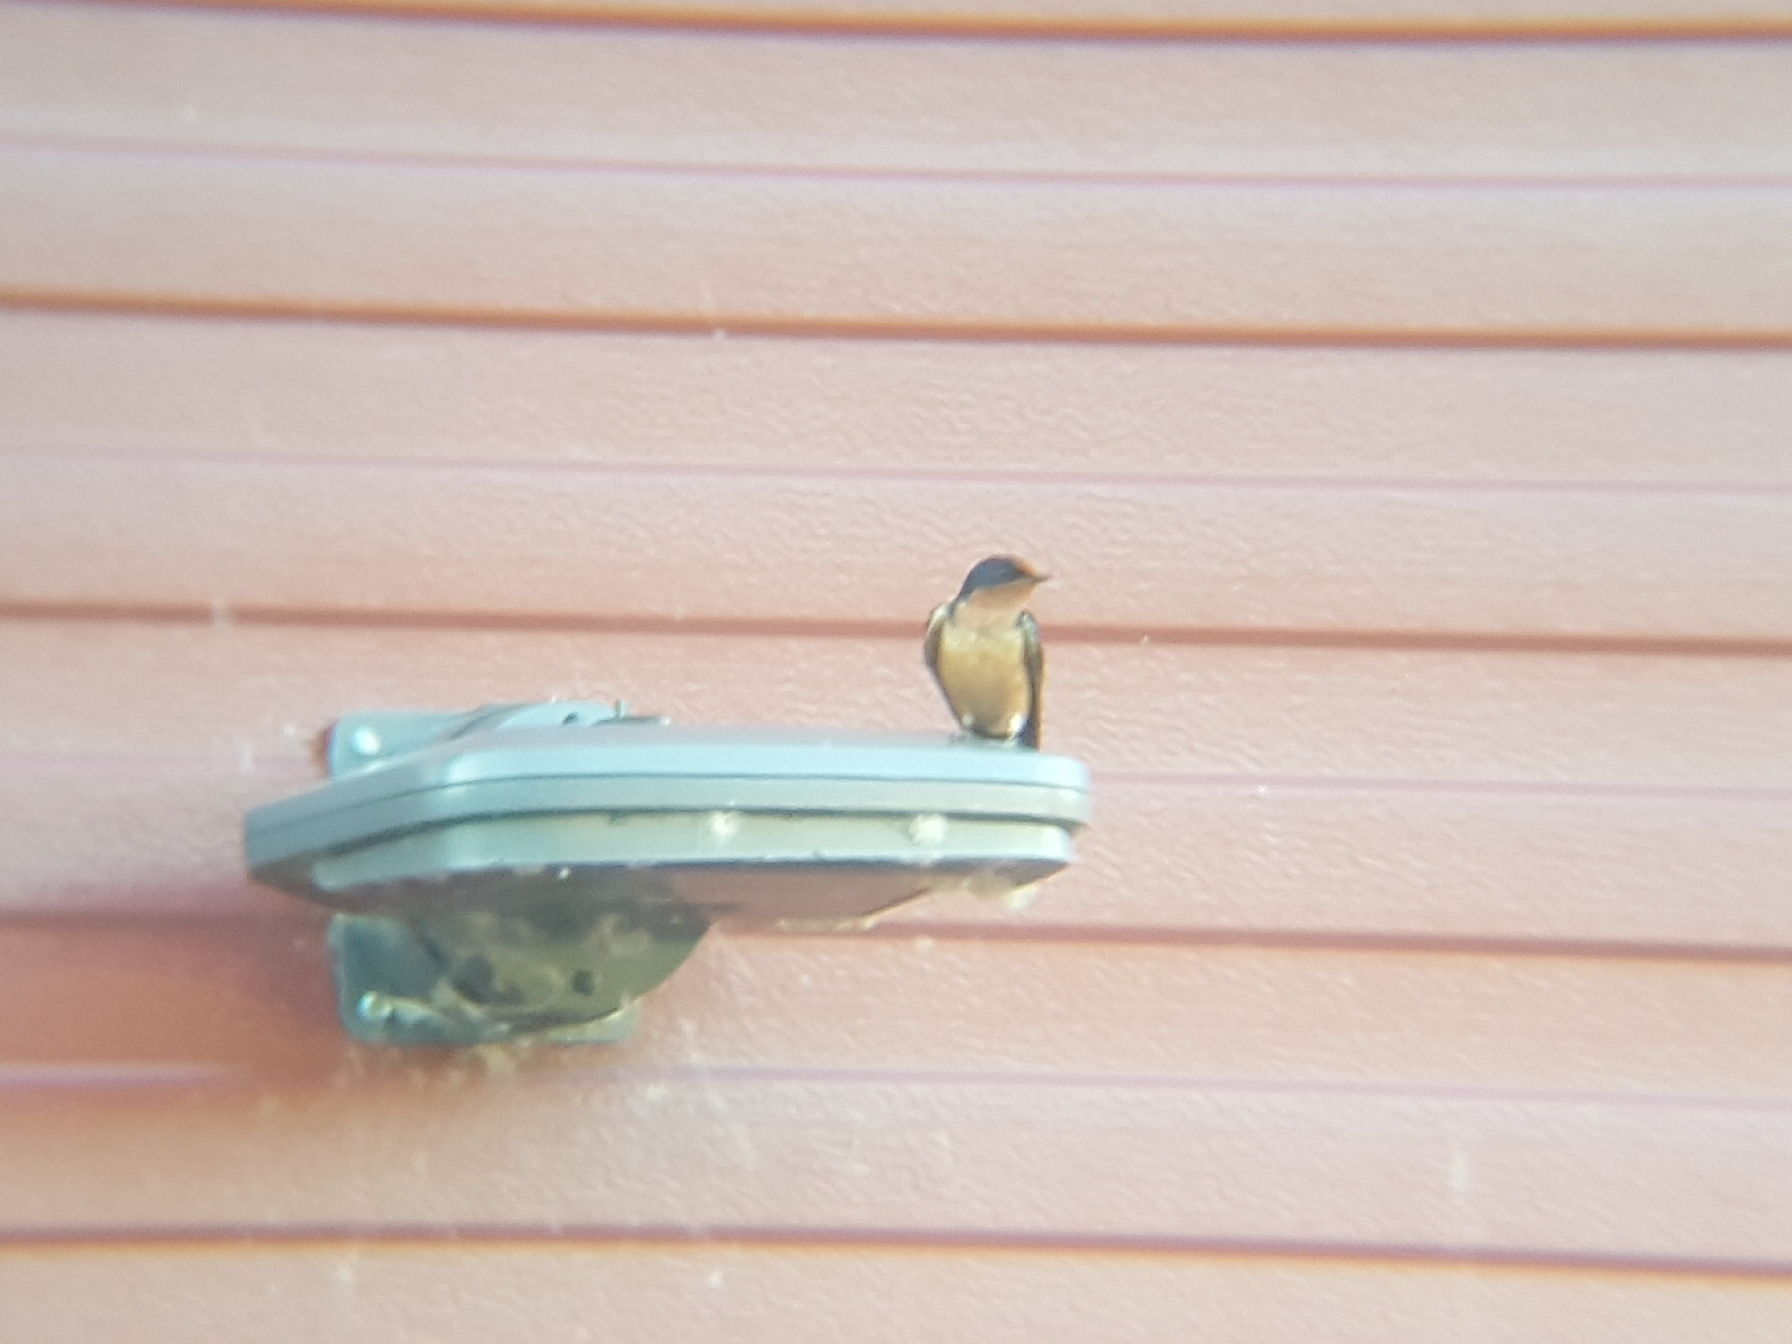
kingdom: Animalia
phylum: Chordata
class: Aves
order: Passeriformes
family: Hirundinidae
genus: Hirundo
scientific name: Hirundo rustica
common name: Barn swallow
